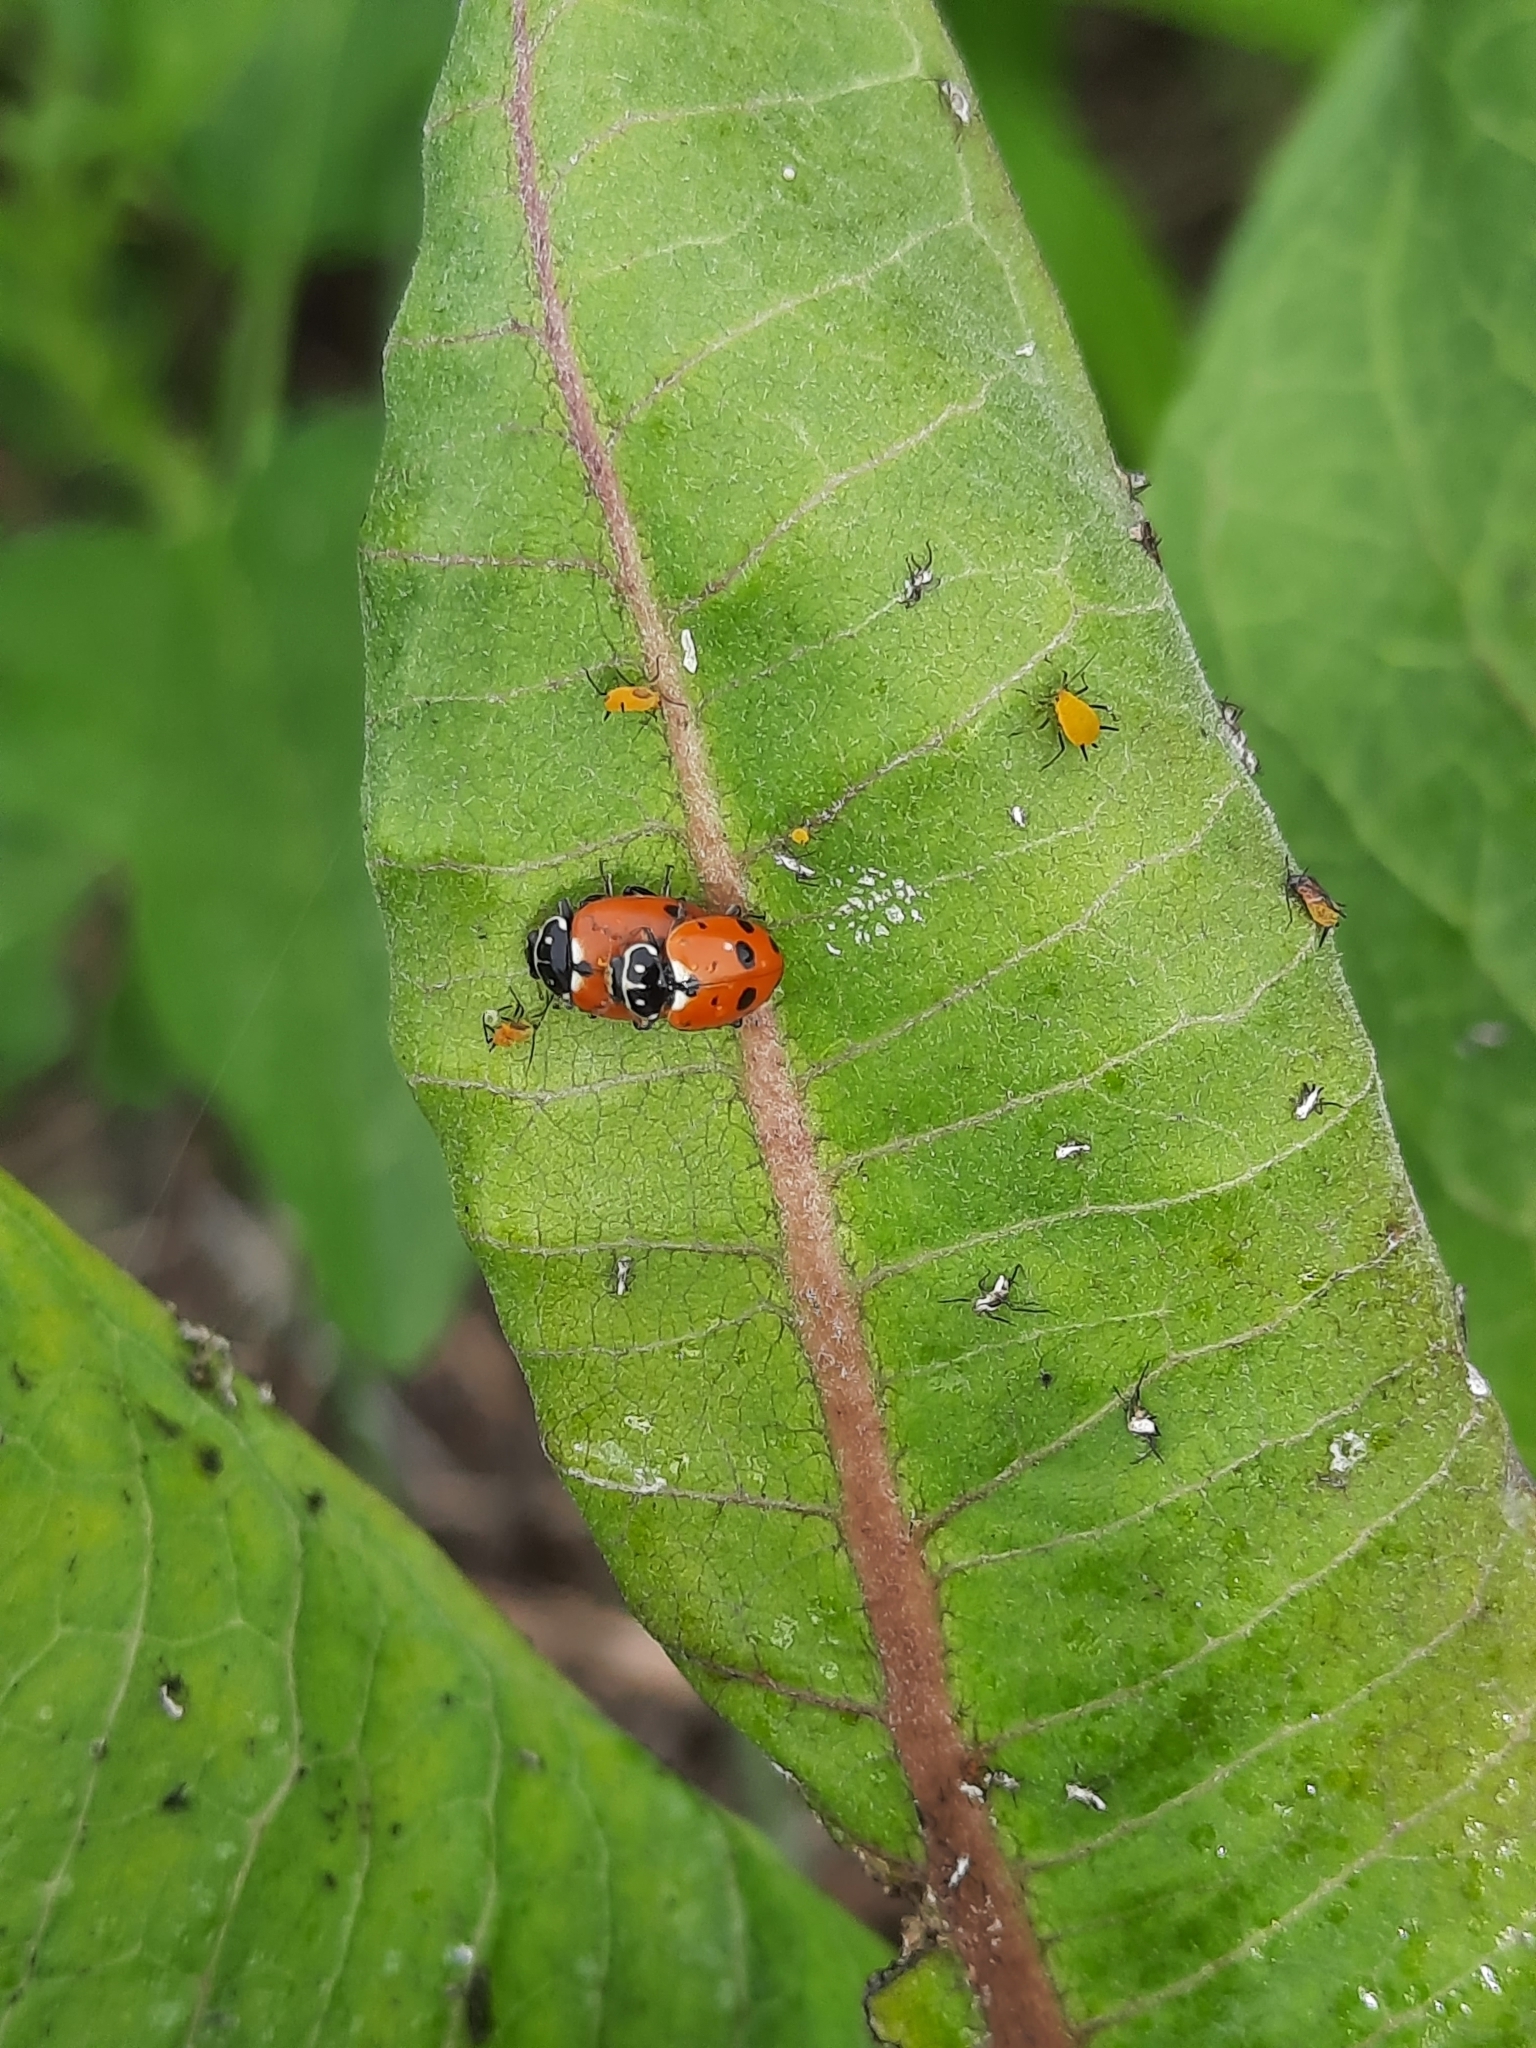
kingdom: Animalia
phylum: Arthropoda
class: Insecta
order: Coleoptera
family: Coccinellidae
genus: Hippodamia
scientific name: Hippodamia variegata
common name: Ladybird beetle
